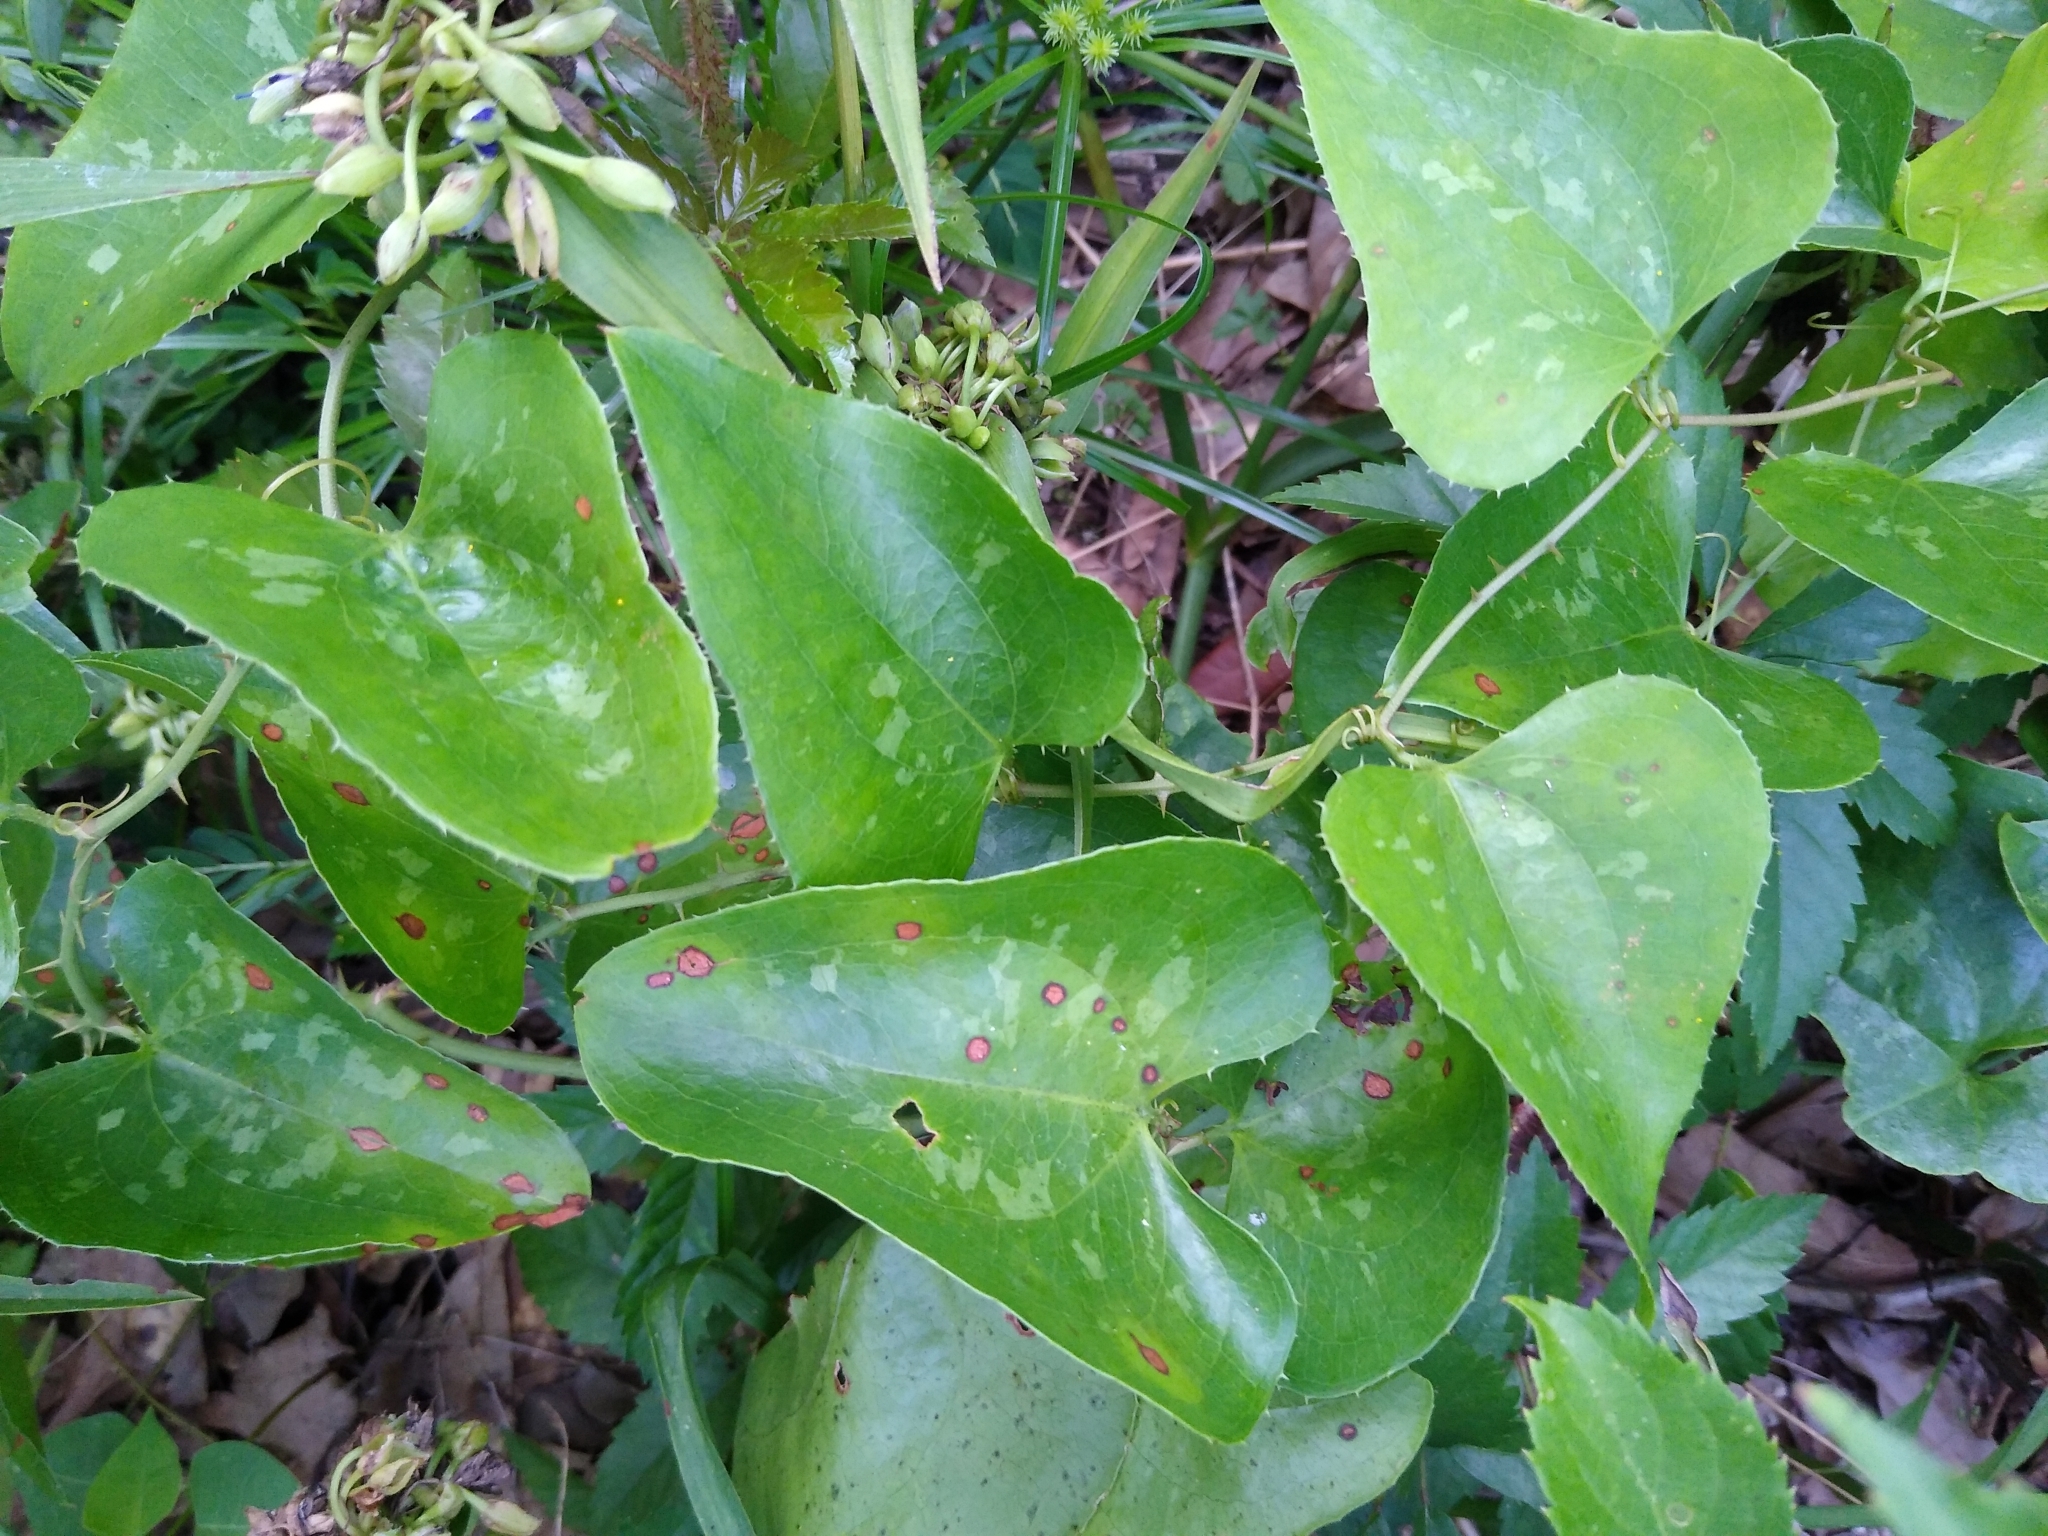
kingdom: Plantae
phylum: Tracheophyta
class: Liliopsida
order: Liliales
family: Smilacaceae
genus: Smilax
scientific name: Smilax bona-nox
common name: Catbrier
